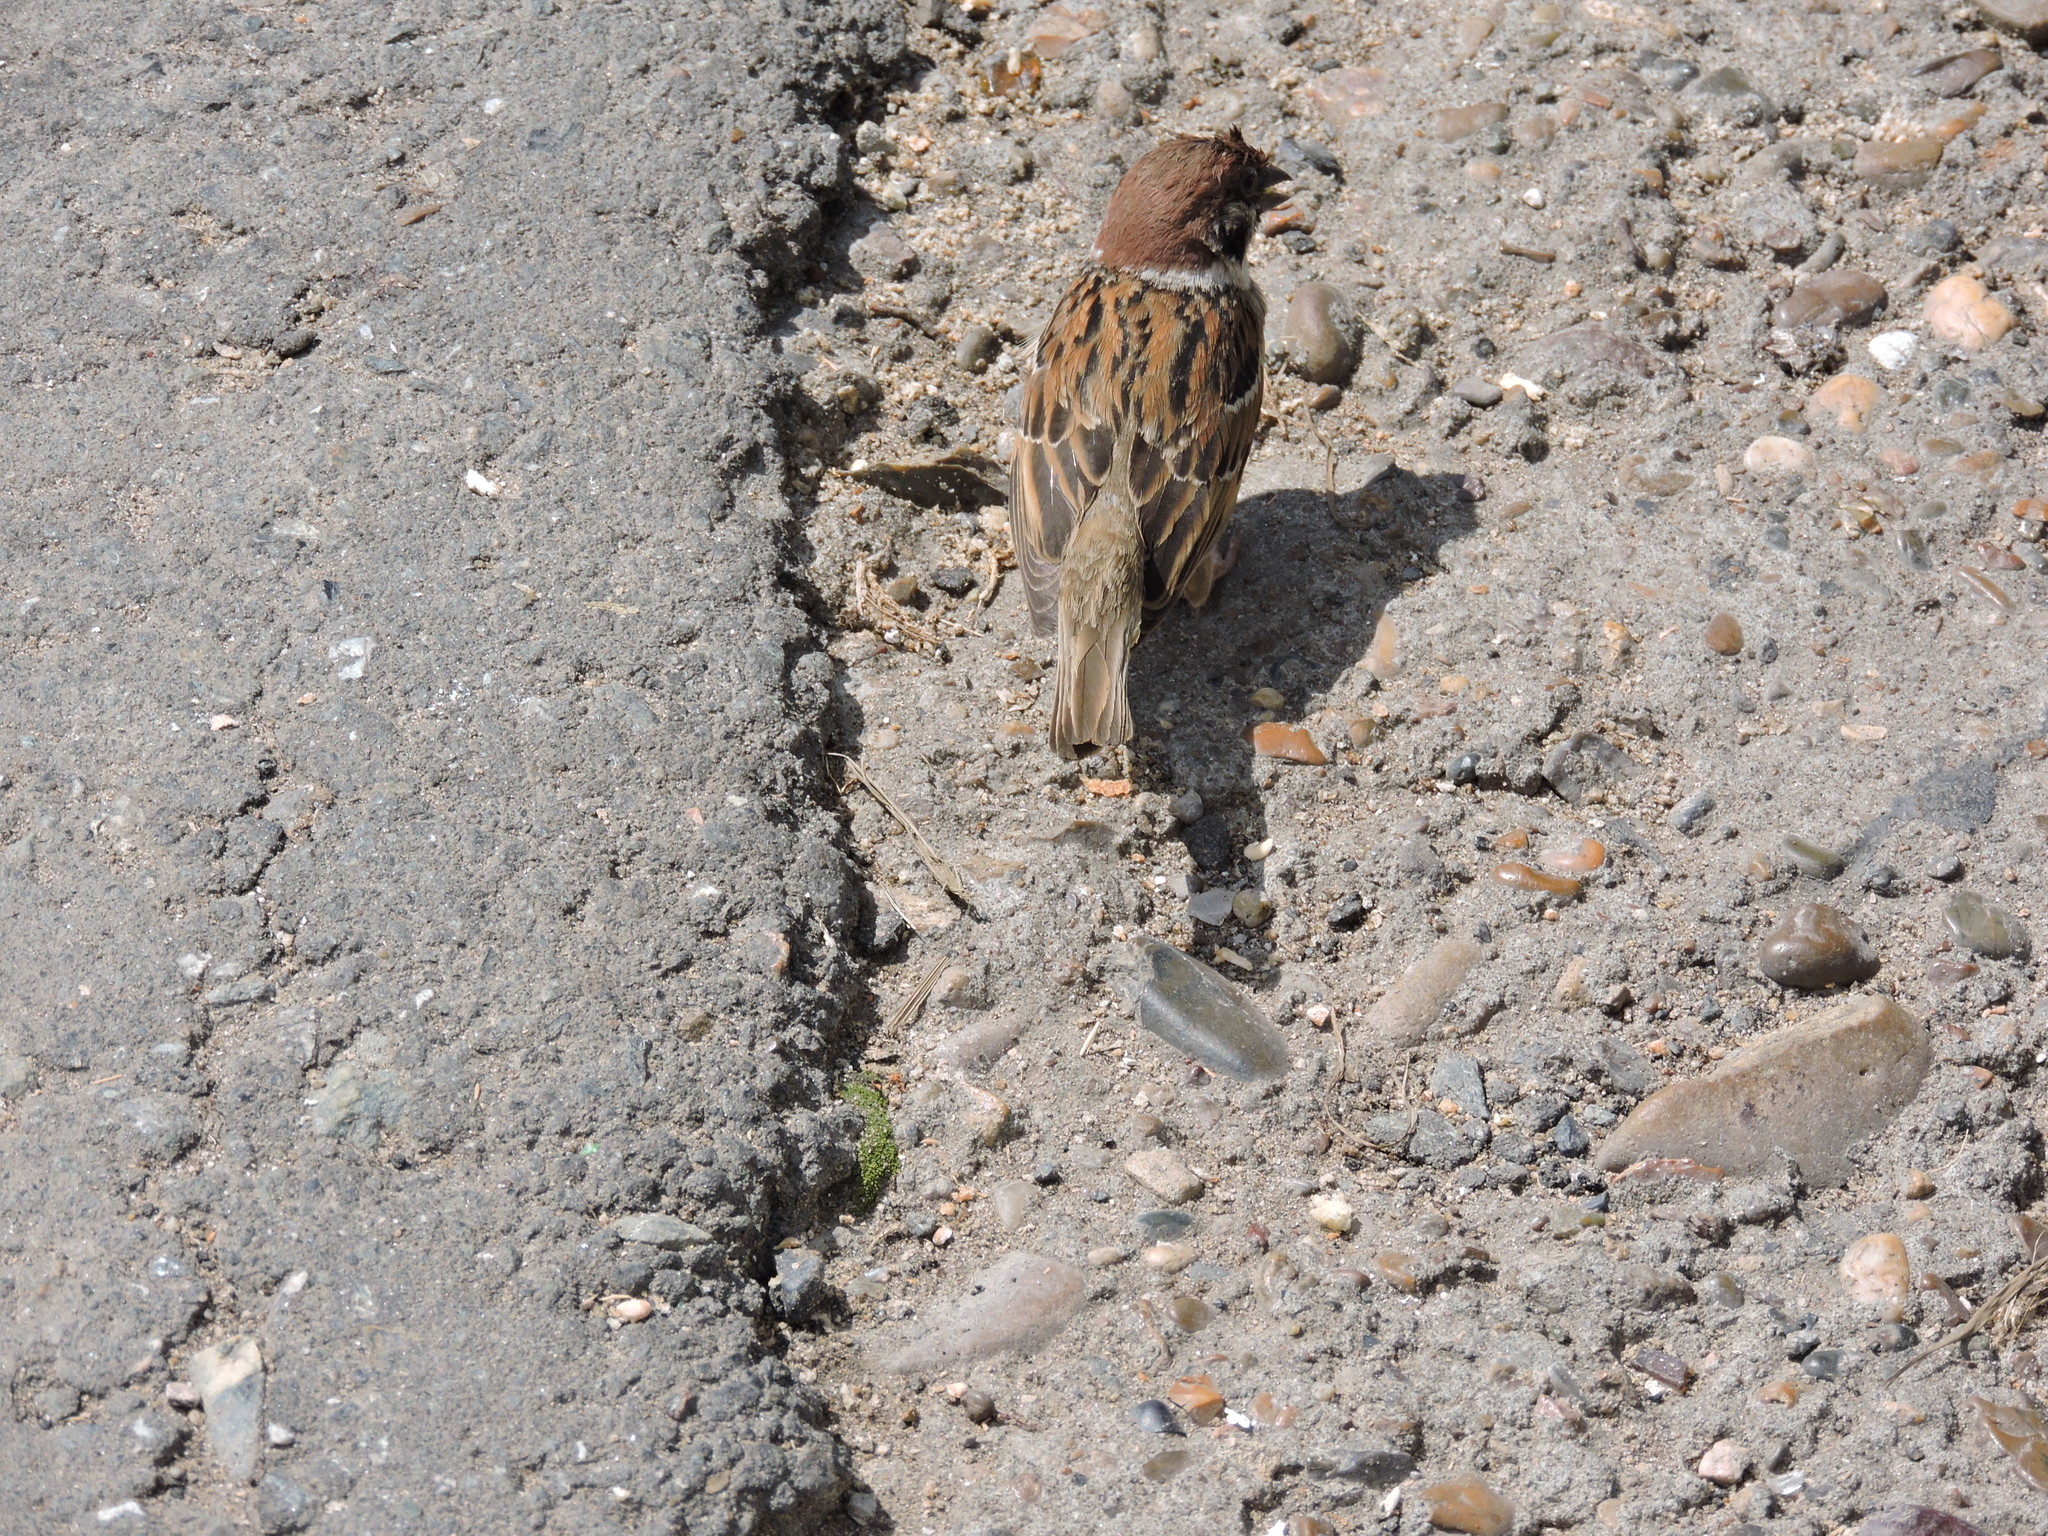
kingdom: Animalia
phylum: Chordata
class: Aves
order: Passeriformes
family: Passeridae
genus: Passer
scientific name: Passer montanus
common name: Eurasian tree sparrow
